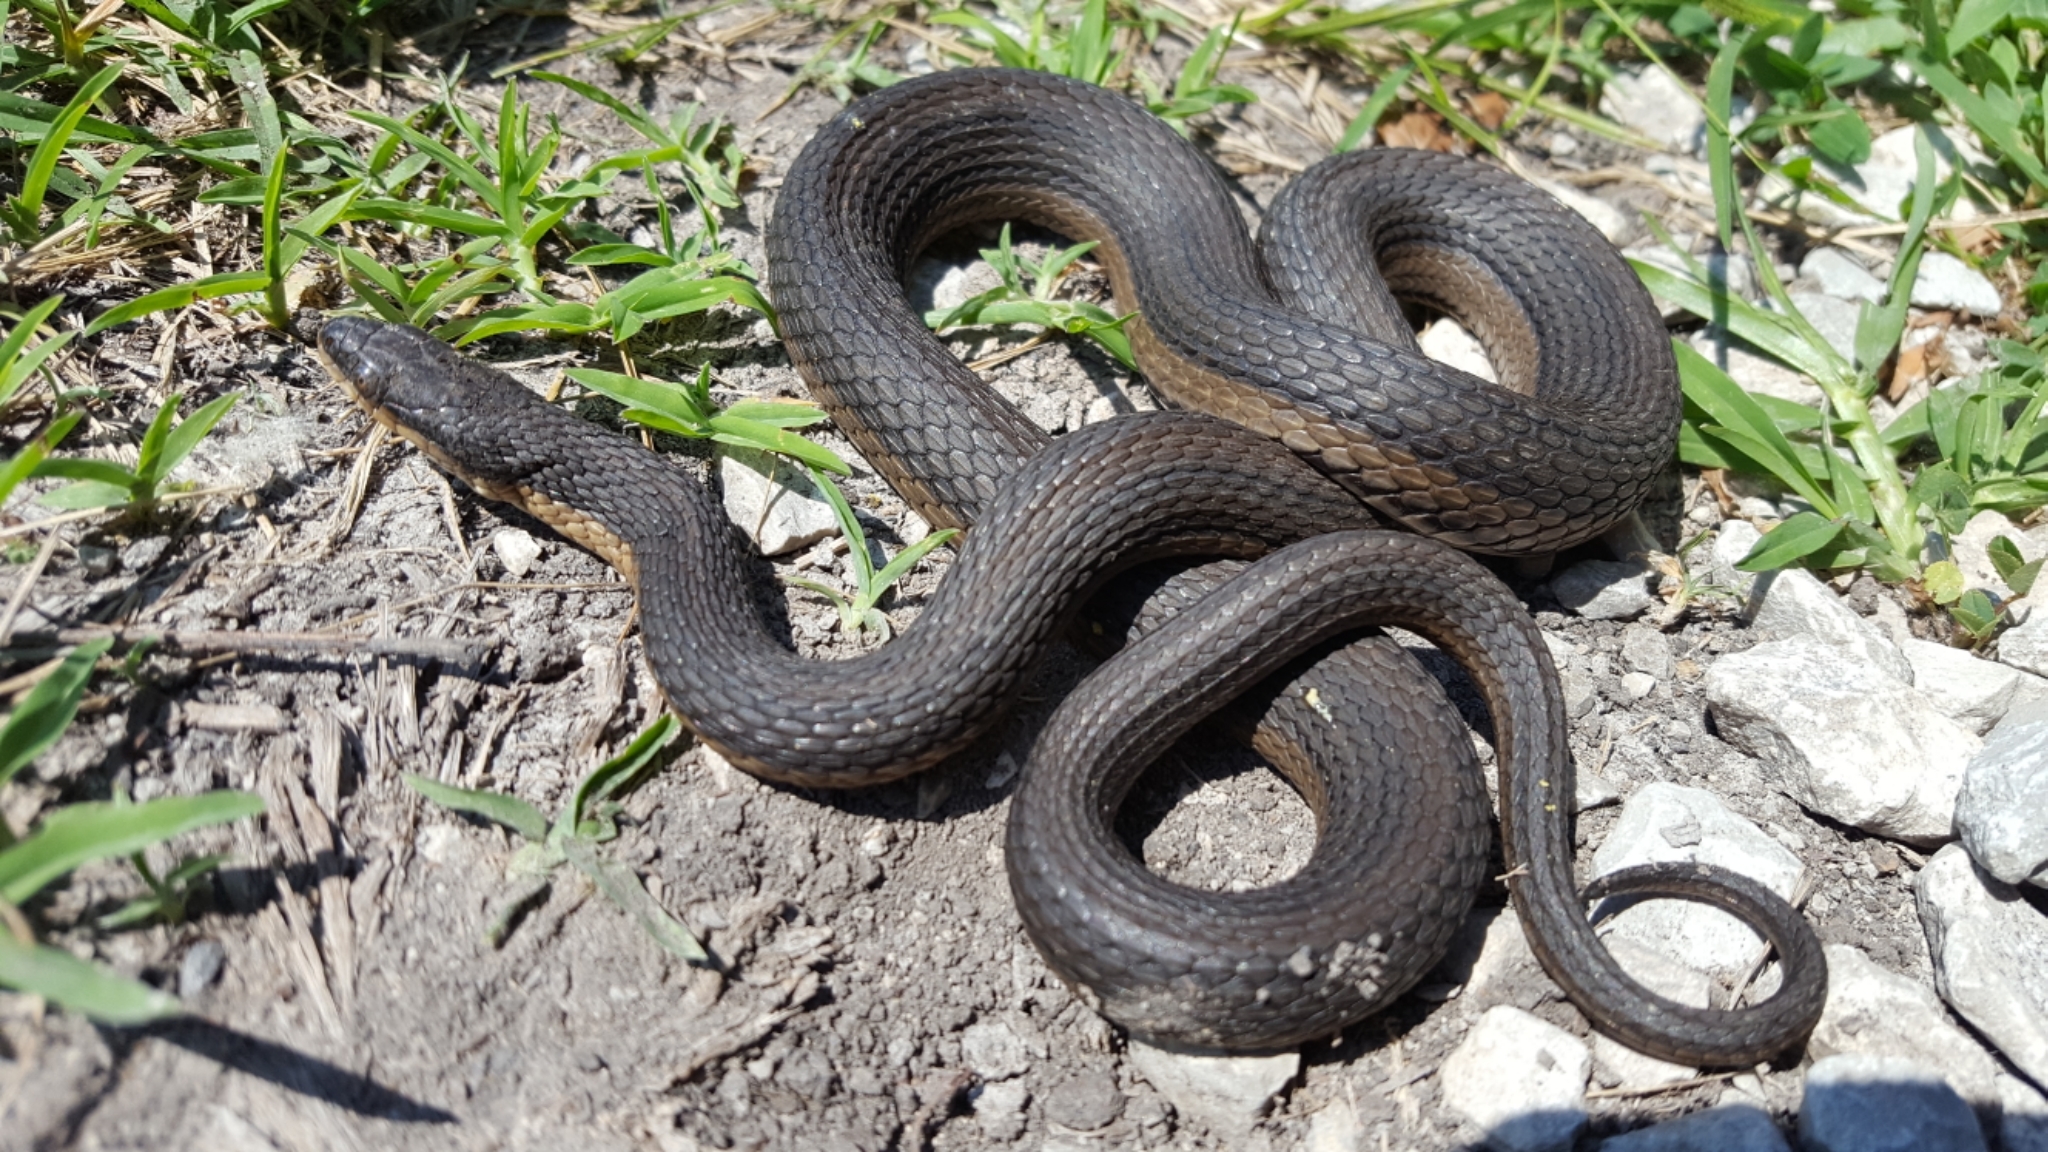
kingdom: Animalia
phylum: Chordata
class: Squamata
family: Colubridae
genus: Regina
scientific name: Regina grahamii
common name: Graham's crayfish snake
